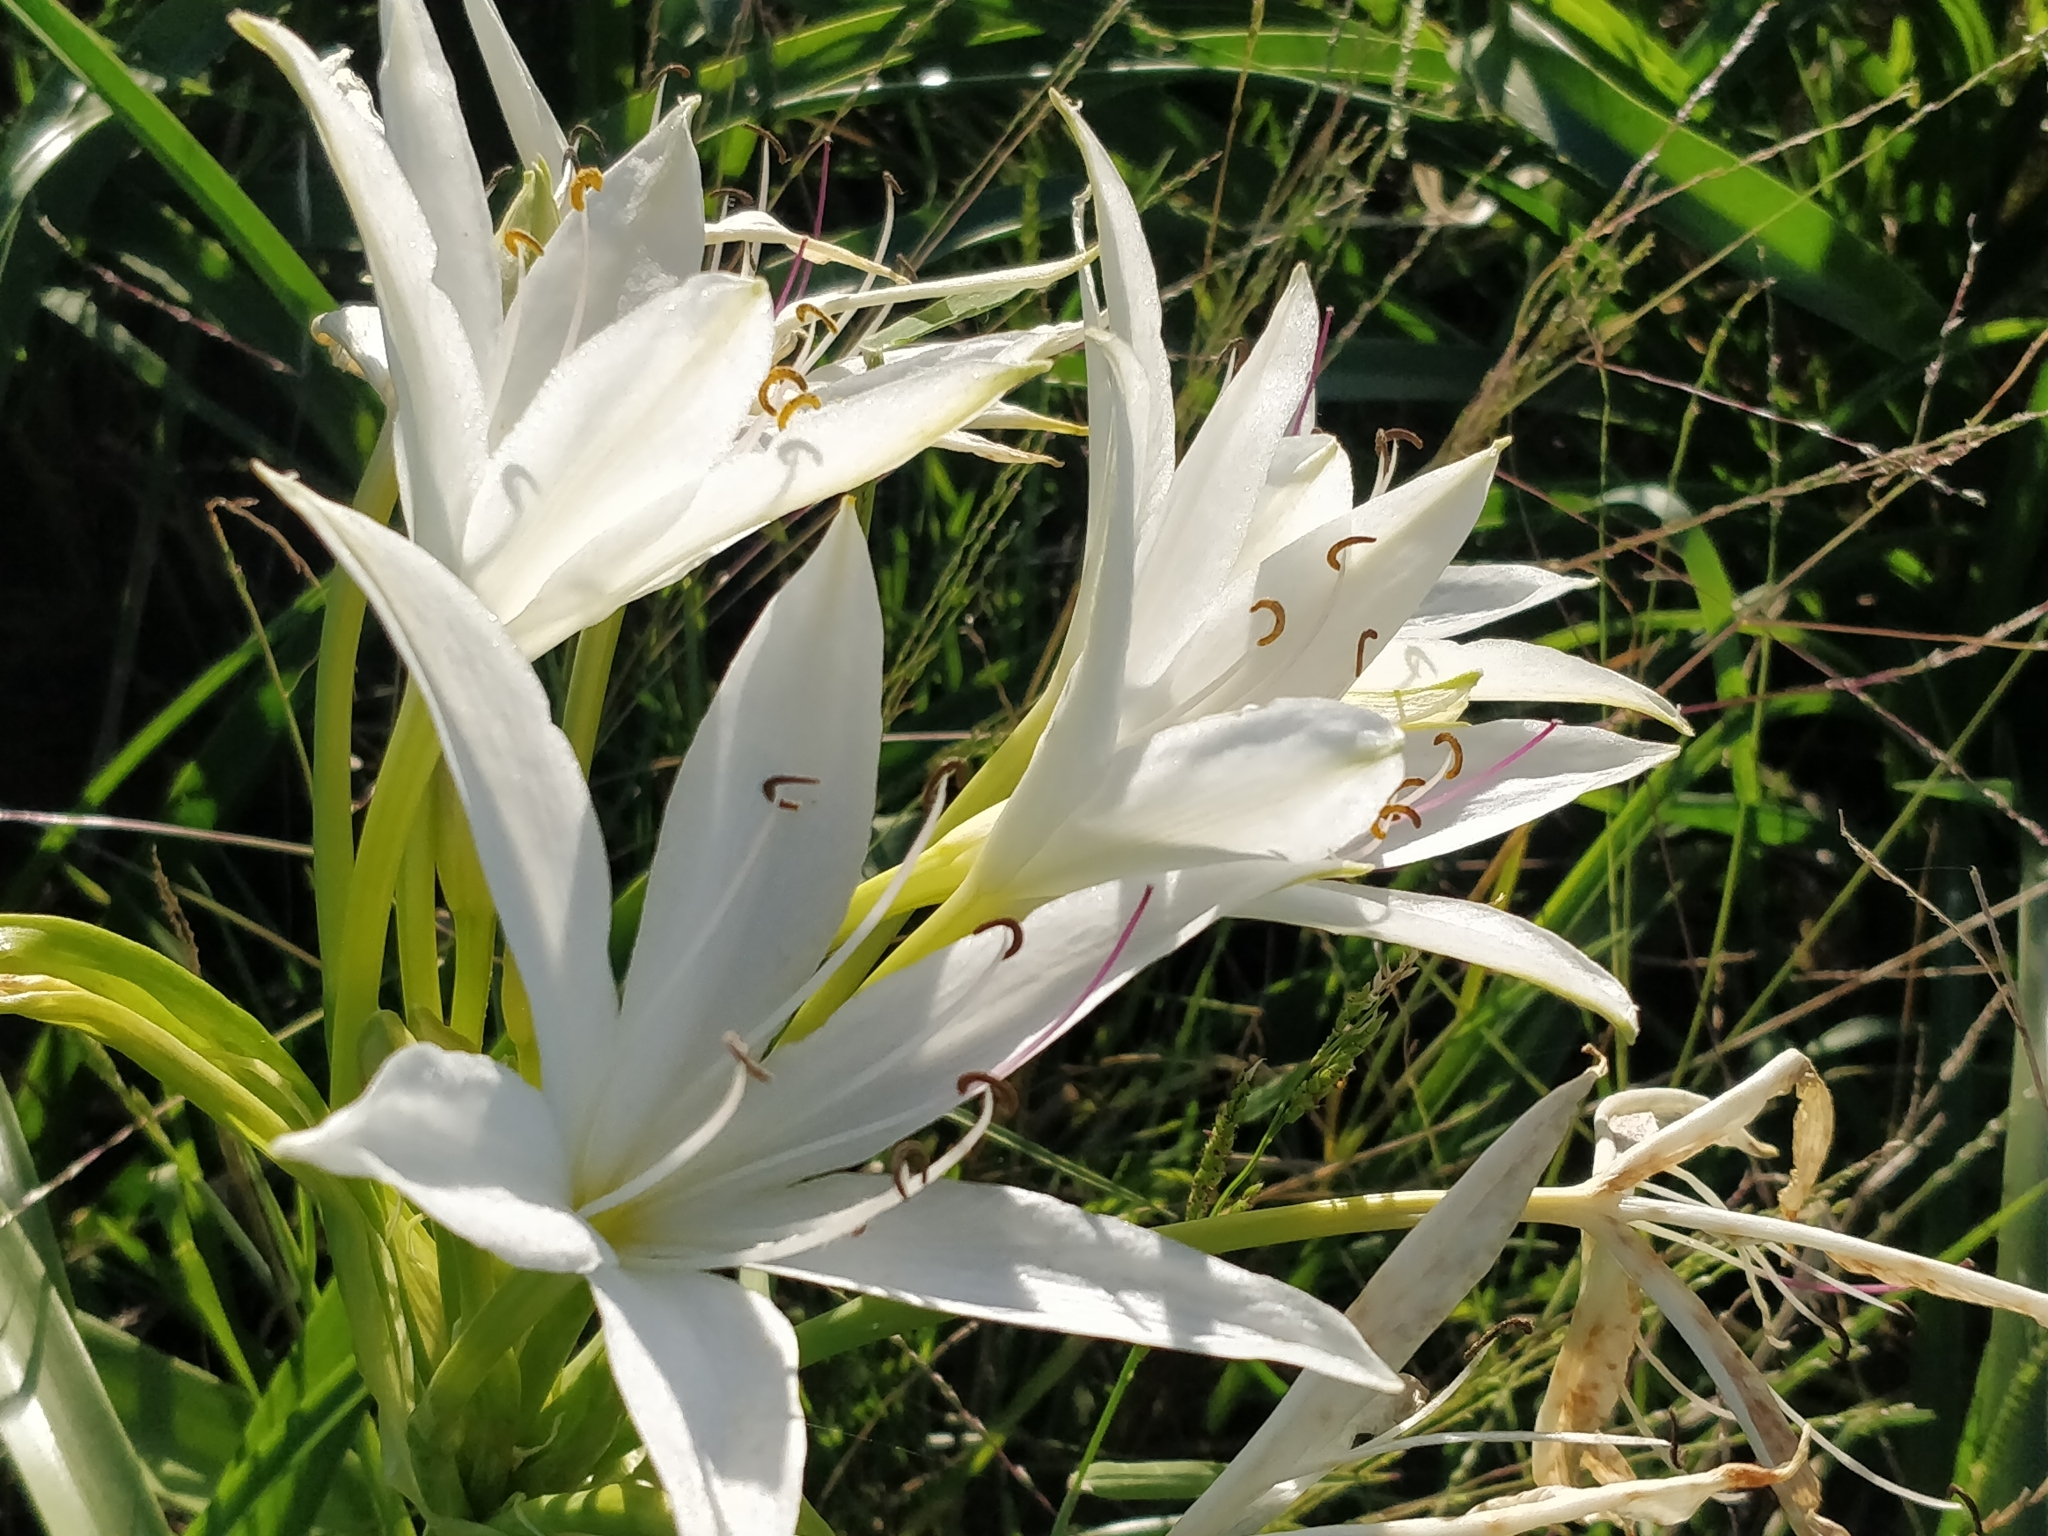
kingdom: Plantae
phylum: Tracheophyta
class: Liliopsida
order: Asparagales
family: Amaryllidaceae
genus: Crinum
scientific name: Crinum flaccidum
